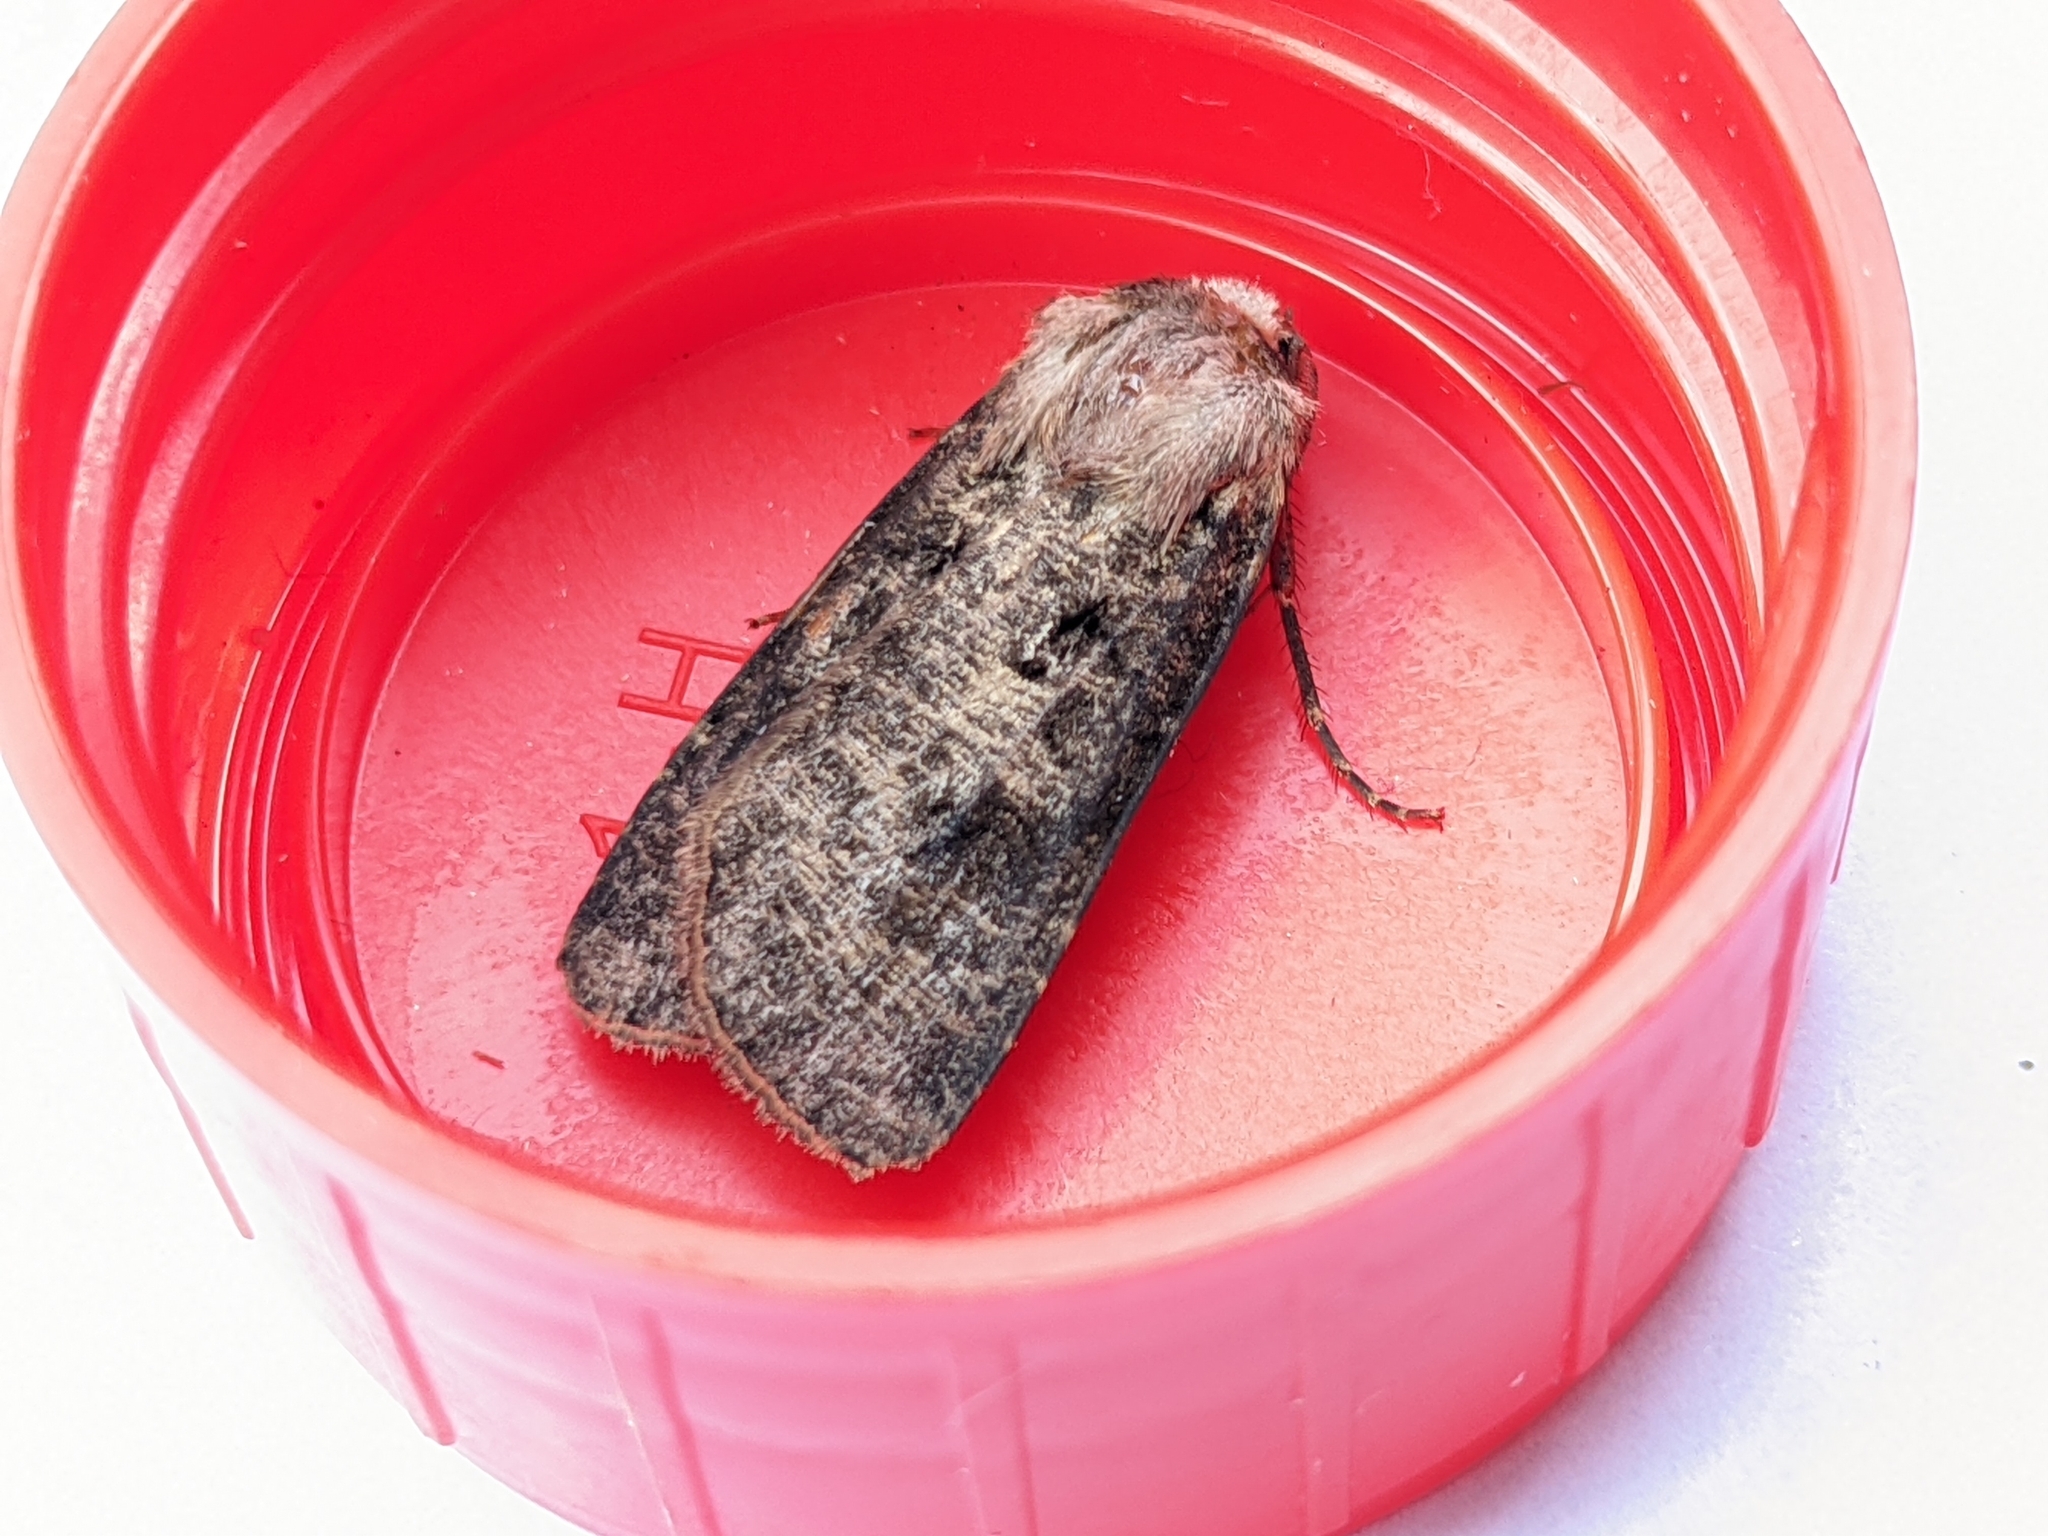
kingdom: Animalia
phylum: Arthropoda
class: Insecta
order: Lepidoptera
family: Noctuidae
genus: Agrotis
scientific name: Agrotis clavis
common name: Heart and club
